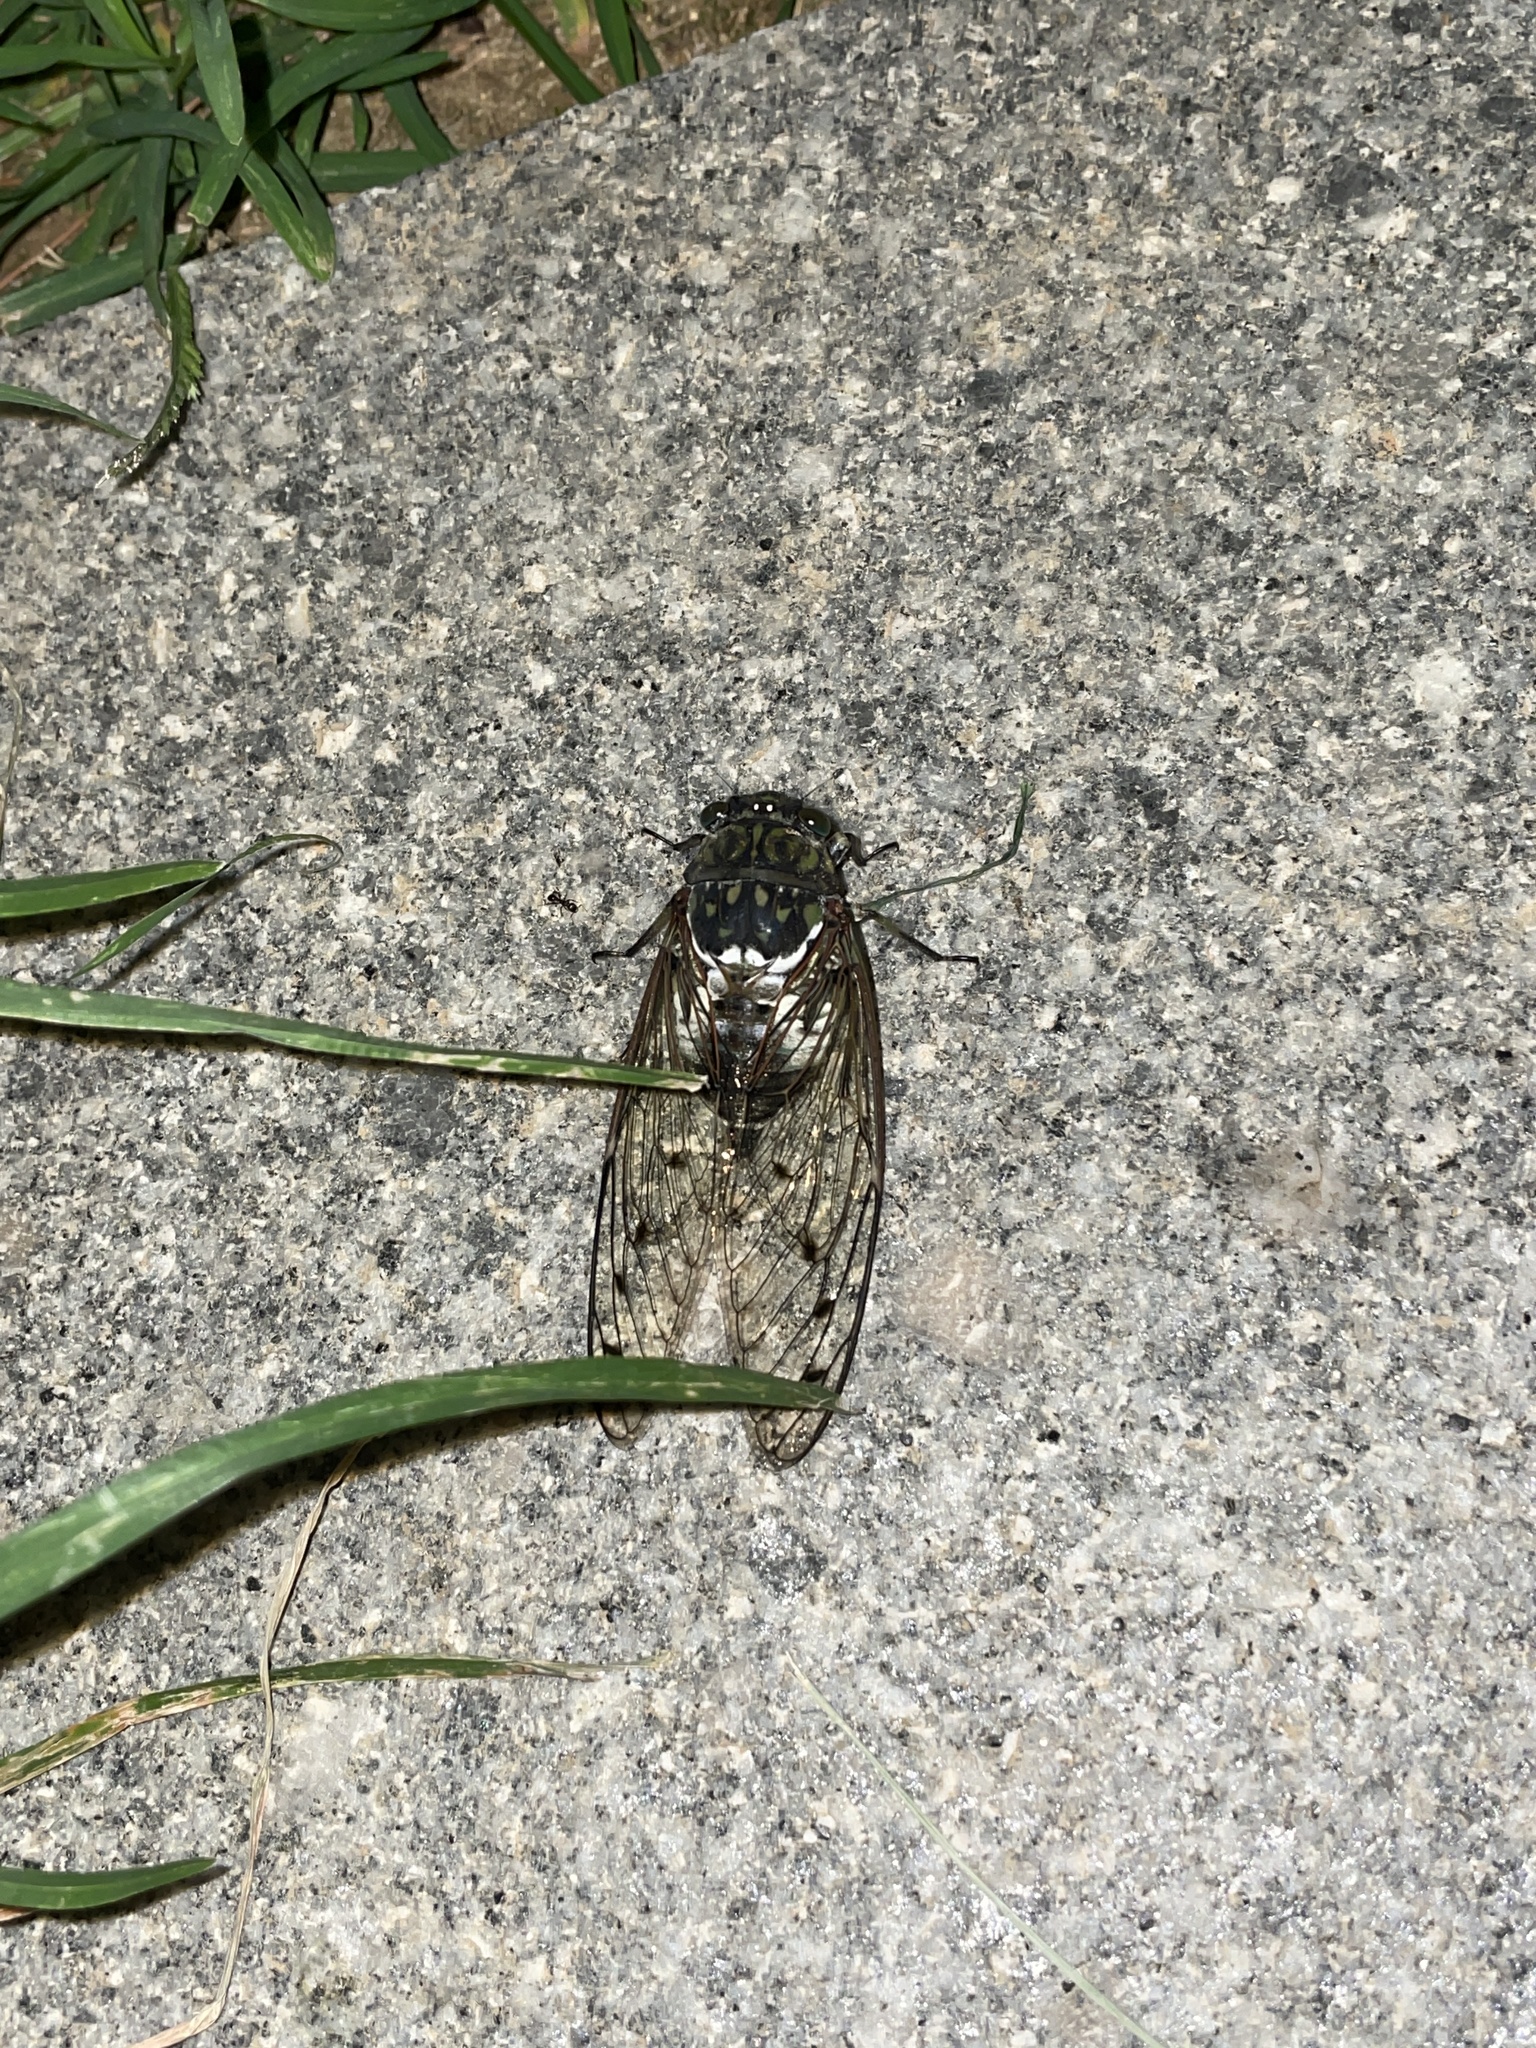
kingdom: Animalia
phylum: Arthropoda
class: Insecta
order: Hemiptera
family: Cicadidae
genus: Hyalessa
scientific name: Hyalessa maculaticollis
